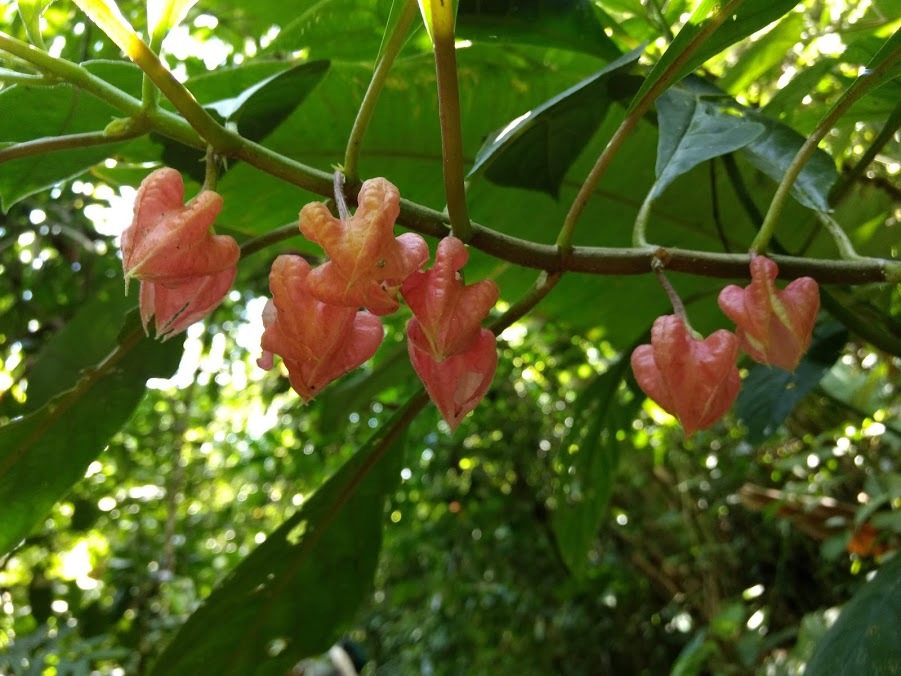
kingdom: Plantae
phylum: Tracheophyta
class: Magnoliopsida
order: Lamiales
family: Gesneriaceae
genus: Drymonia
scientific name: Drymonia strigosa
